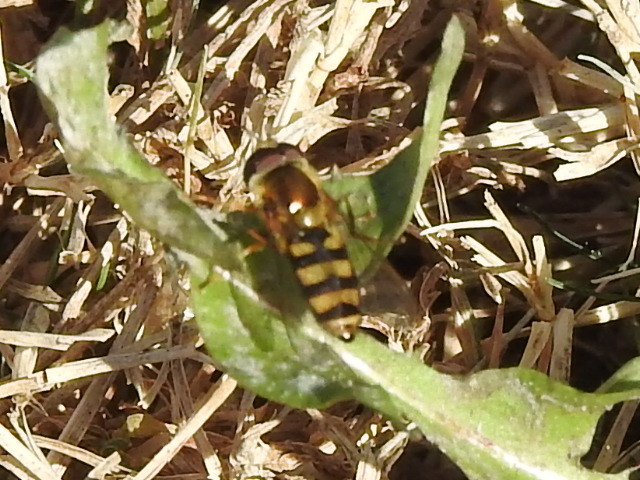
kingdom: Animalia
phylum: Arthropoda
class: Insecta
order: Diptera
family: Syrphidae
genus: Eupeodes
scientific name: Eupeodes
